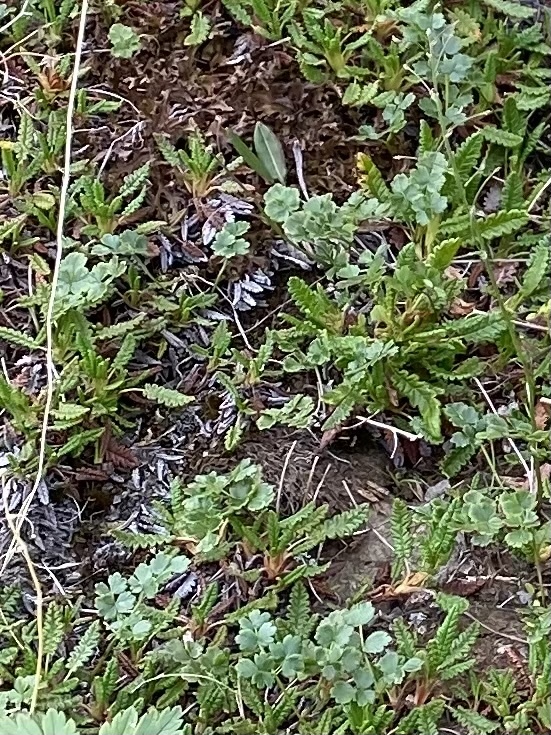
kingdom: Plantae
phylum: Tracheophyta
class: Magnoliopsida
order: Ranunculales
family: Ranunculaceae
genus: Thalictrum
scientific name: Thalictrum alpinum
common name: Alpine meadow-rue
